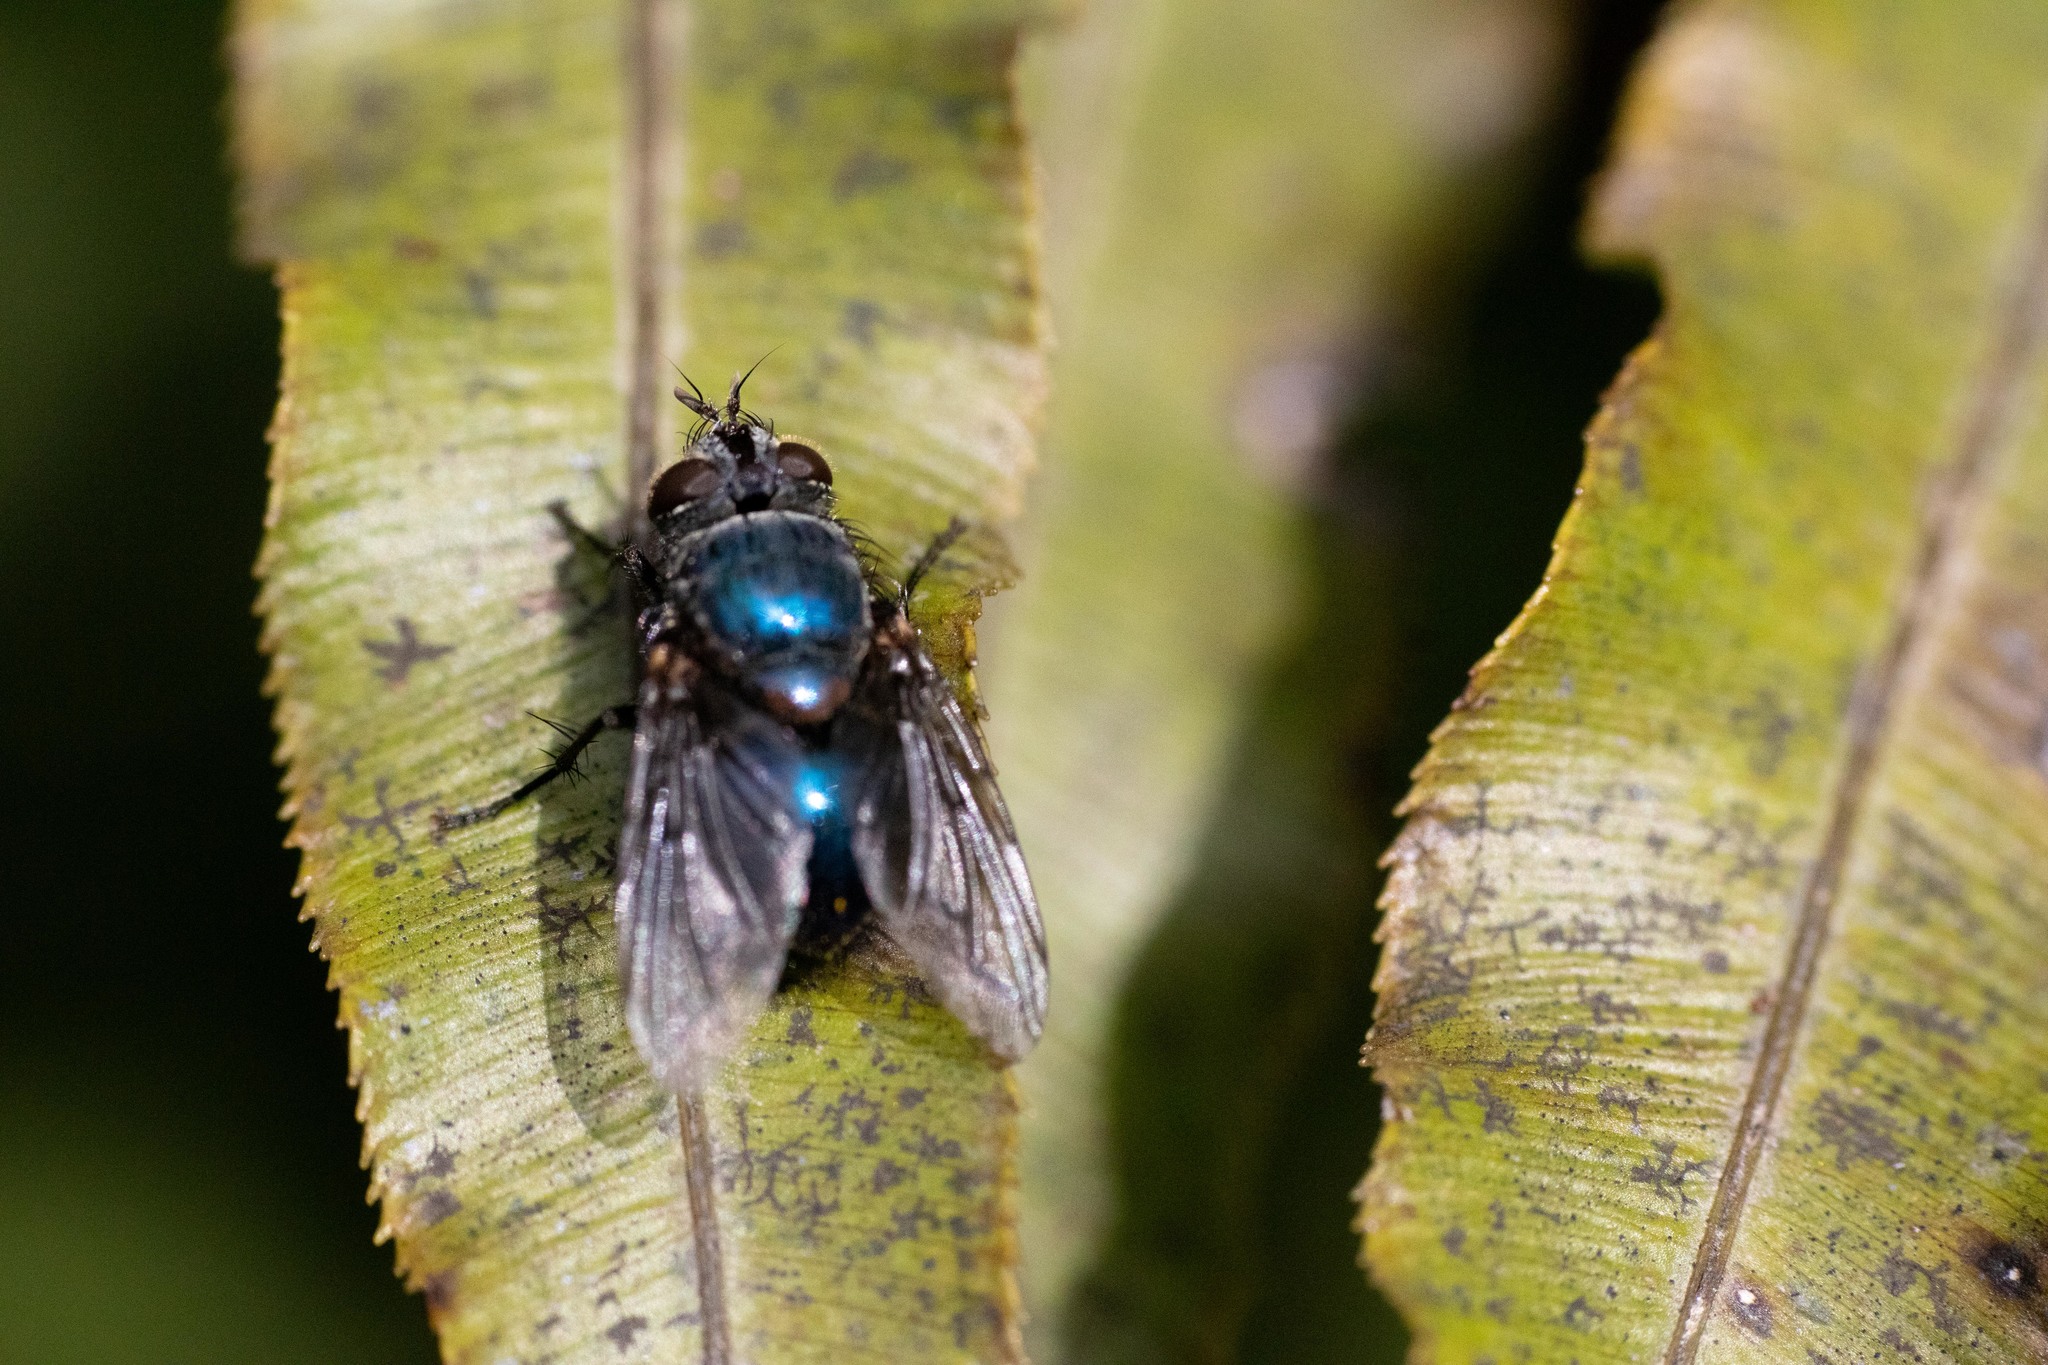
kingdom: Animalia
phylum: Arthropoda
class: Insecta
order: Diptera
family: Tachinidae
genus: Pales
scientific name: Pales marginata
